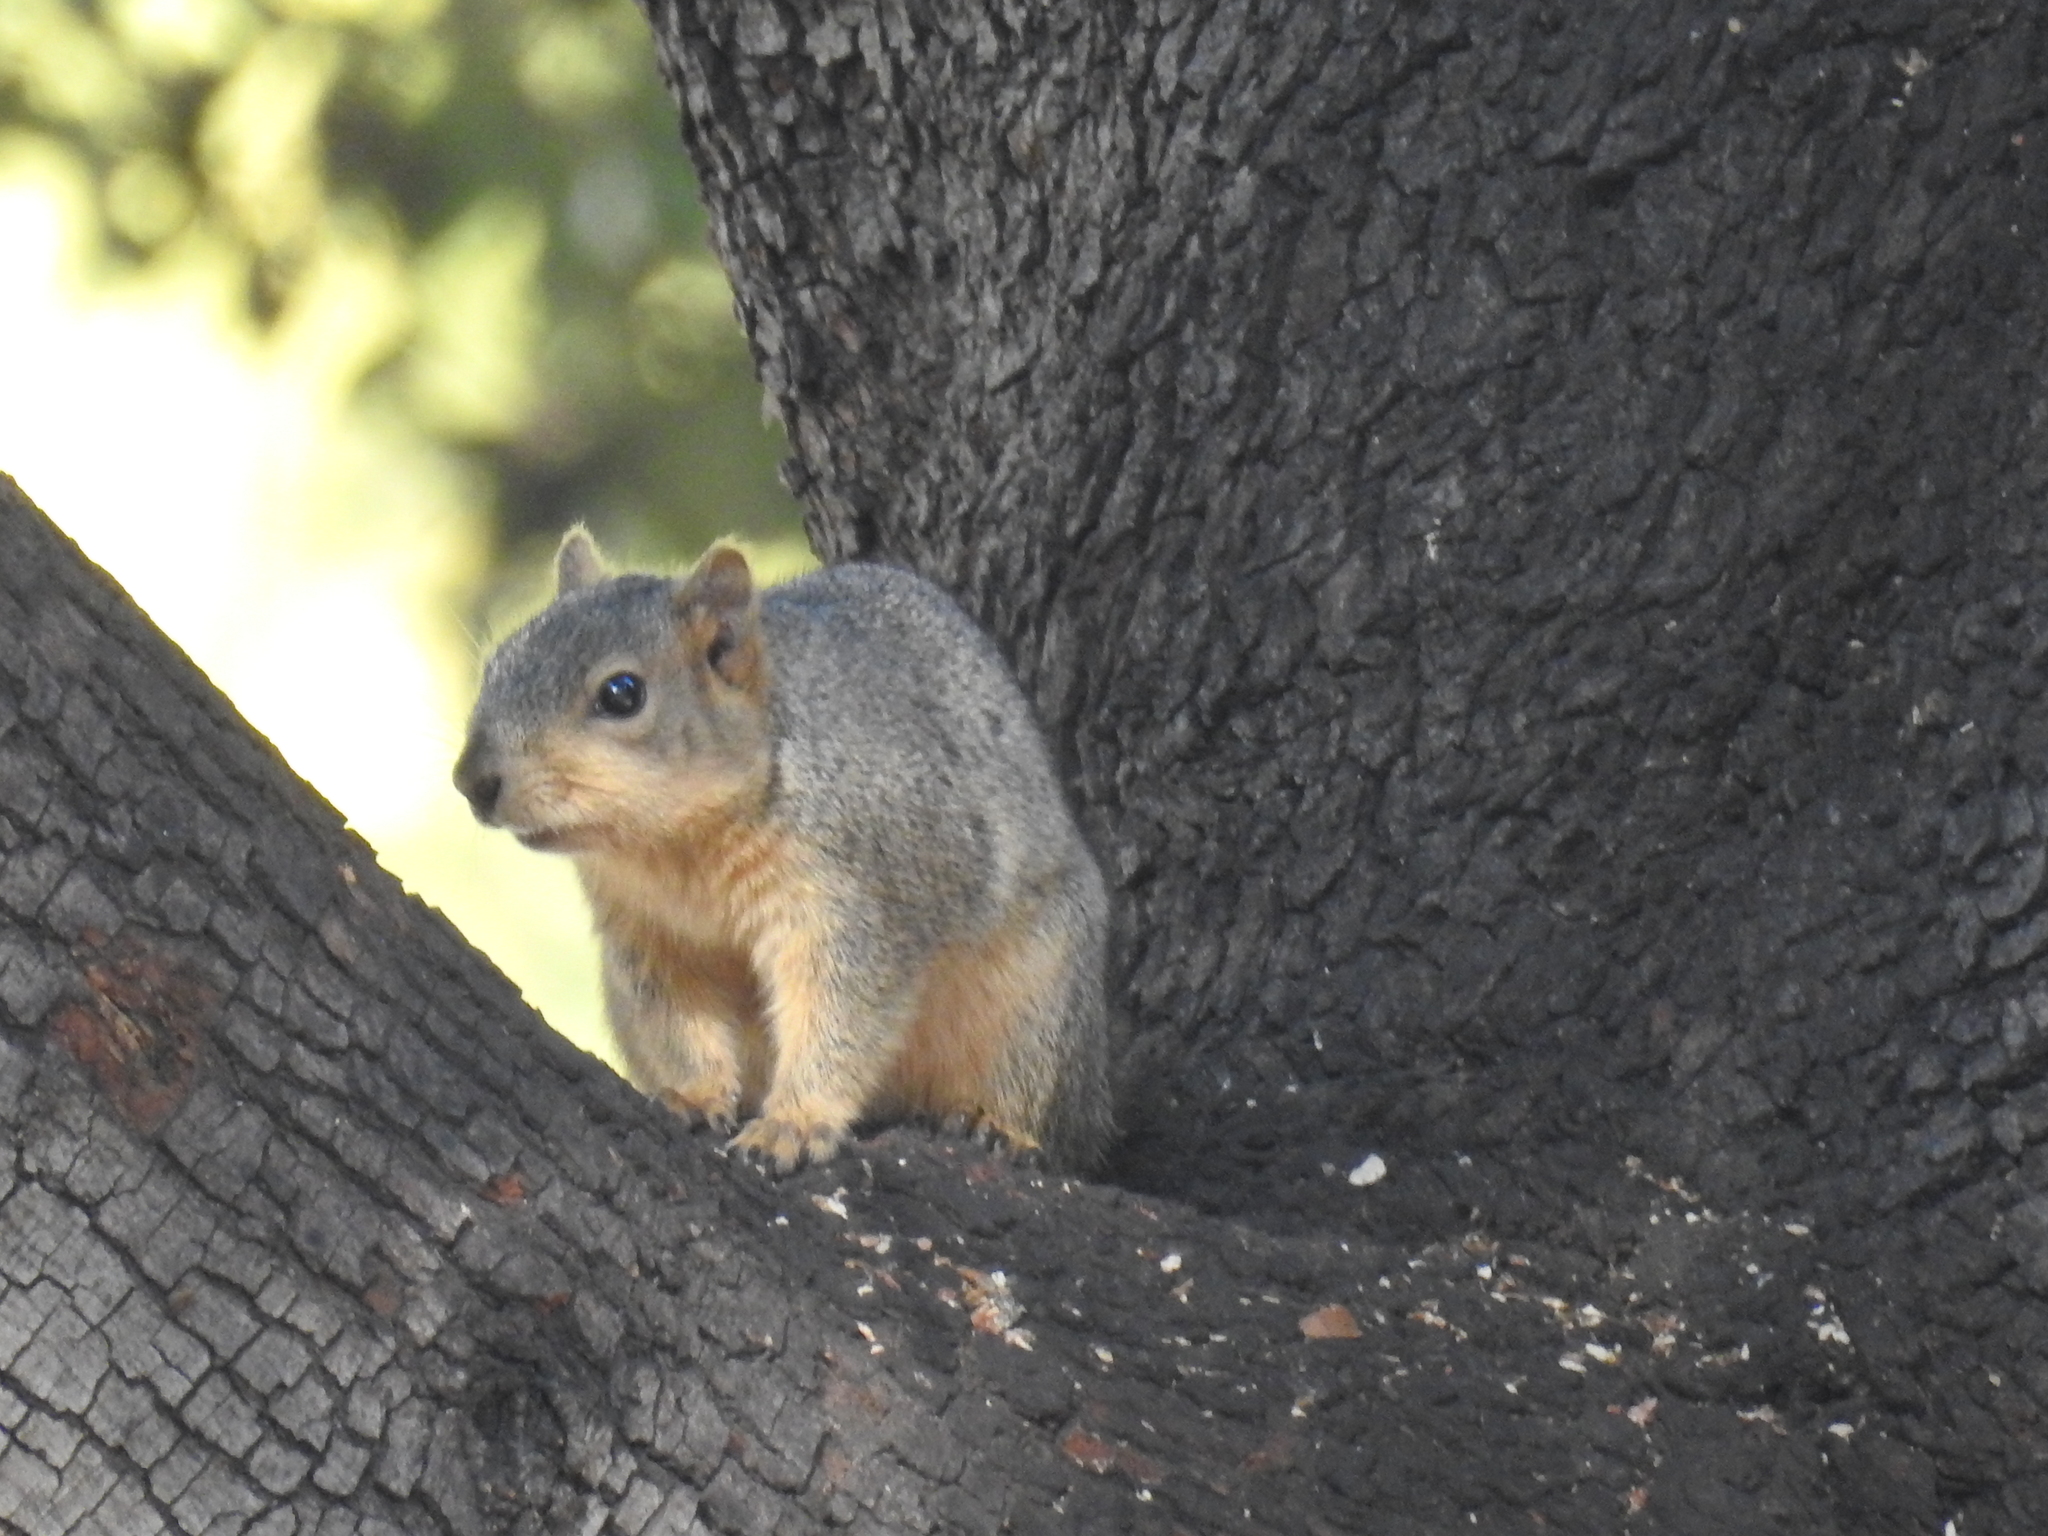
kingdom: Animalia
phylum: Chordata
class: Mammalia
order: Rodentia
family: Sciuridae
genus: Sciurus
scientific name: Sciurus niger
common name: Fox squirrel
